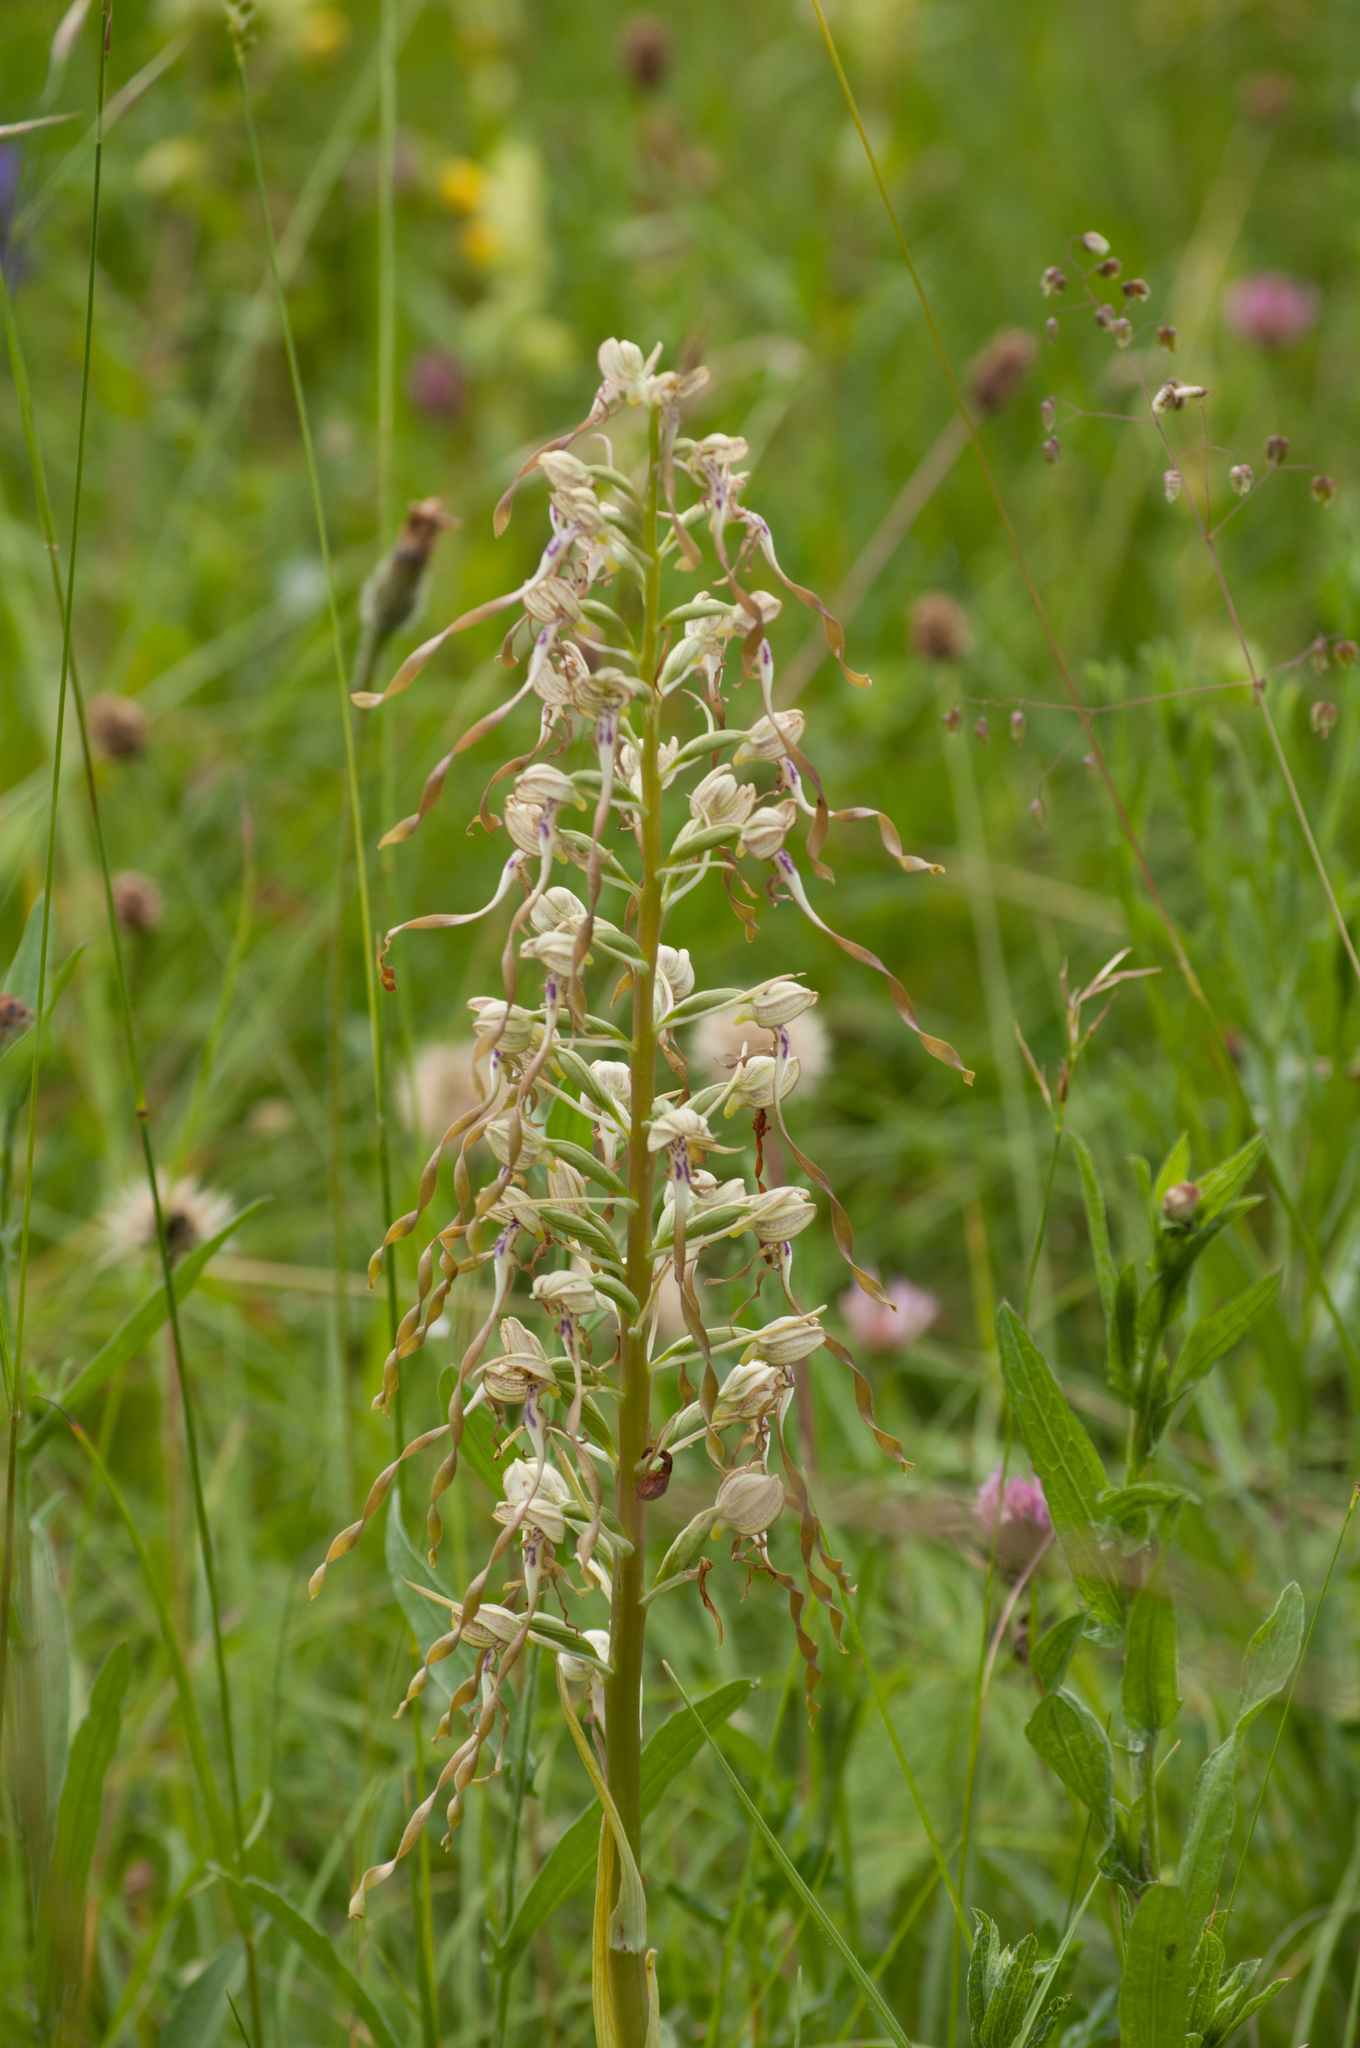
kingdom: Plantae
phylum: Tracheophyta
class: Liliopsida
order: Asparagales
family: Orchidaceae
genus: Himantoglossum
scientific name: Himantoglossum hircinum
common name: Lizard orchid
